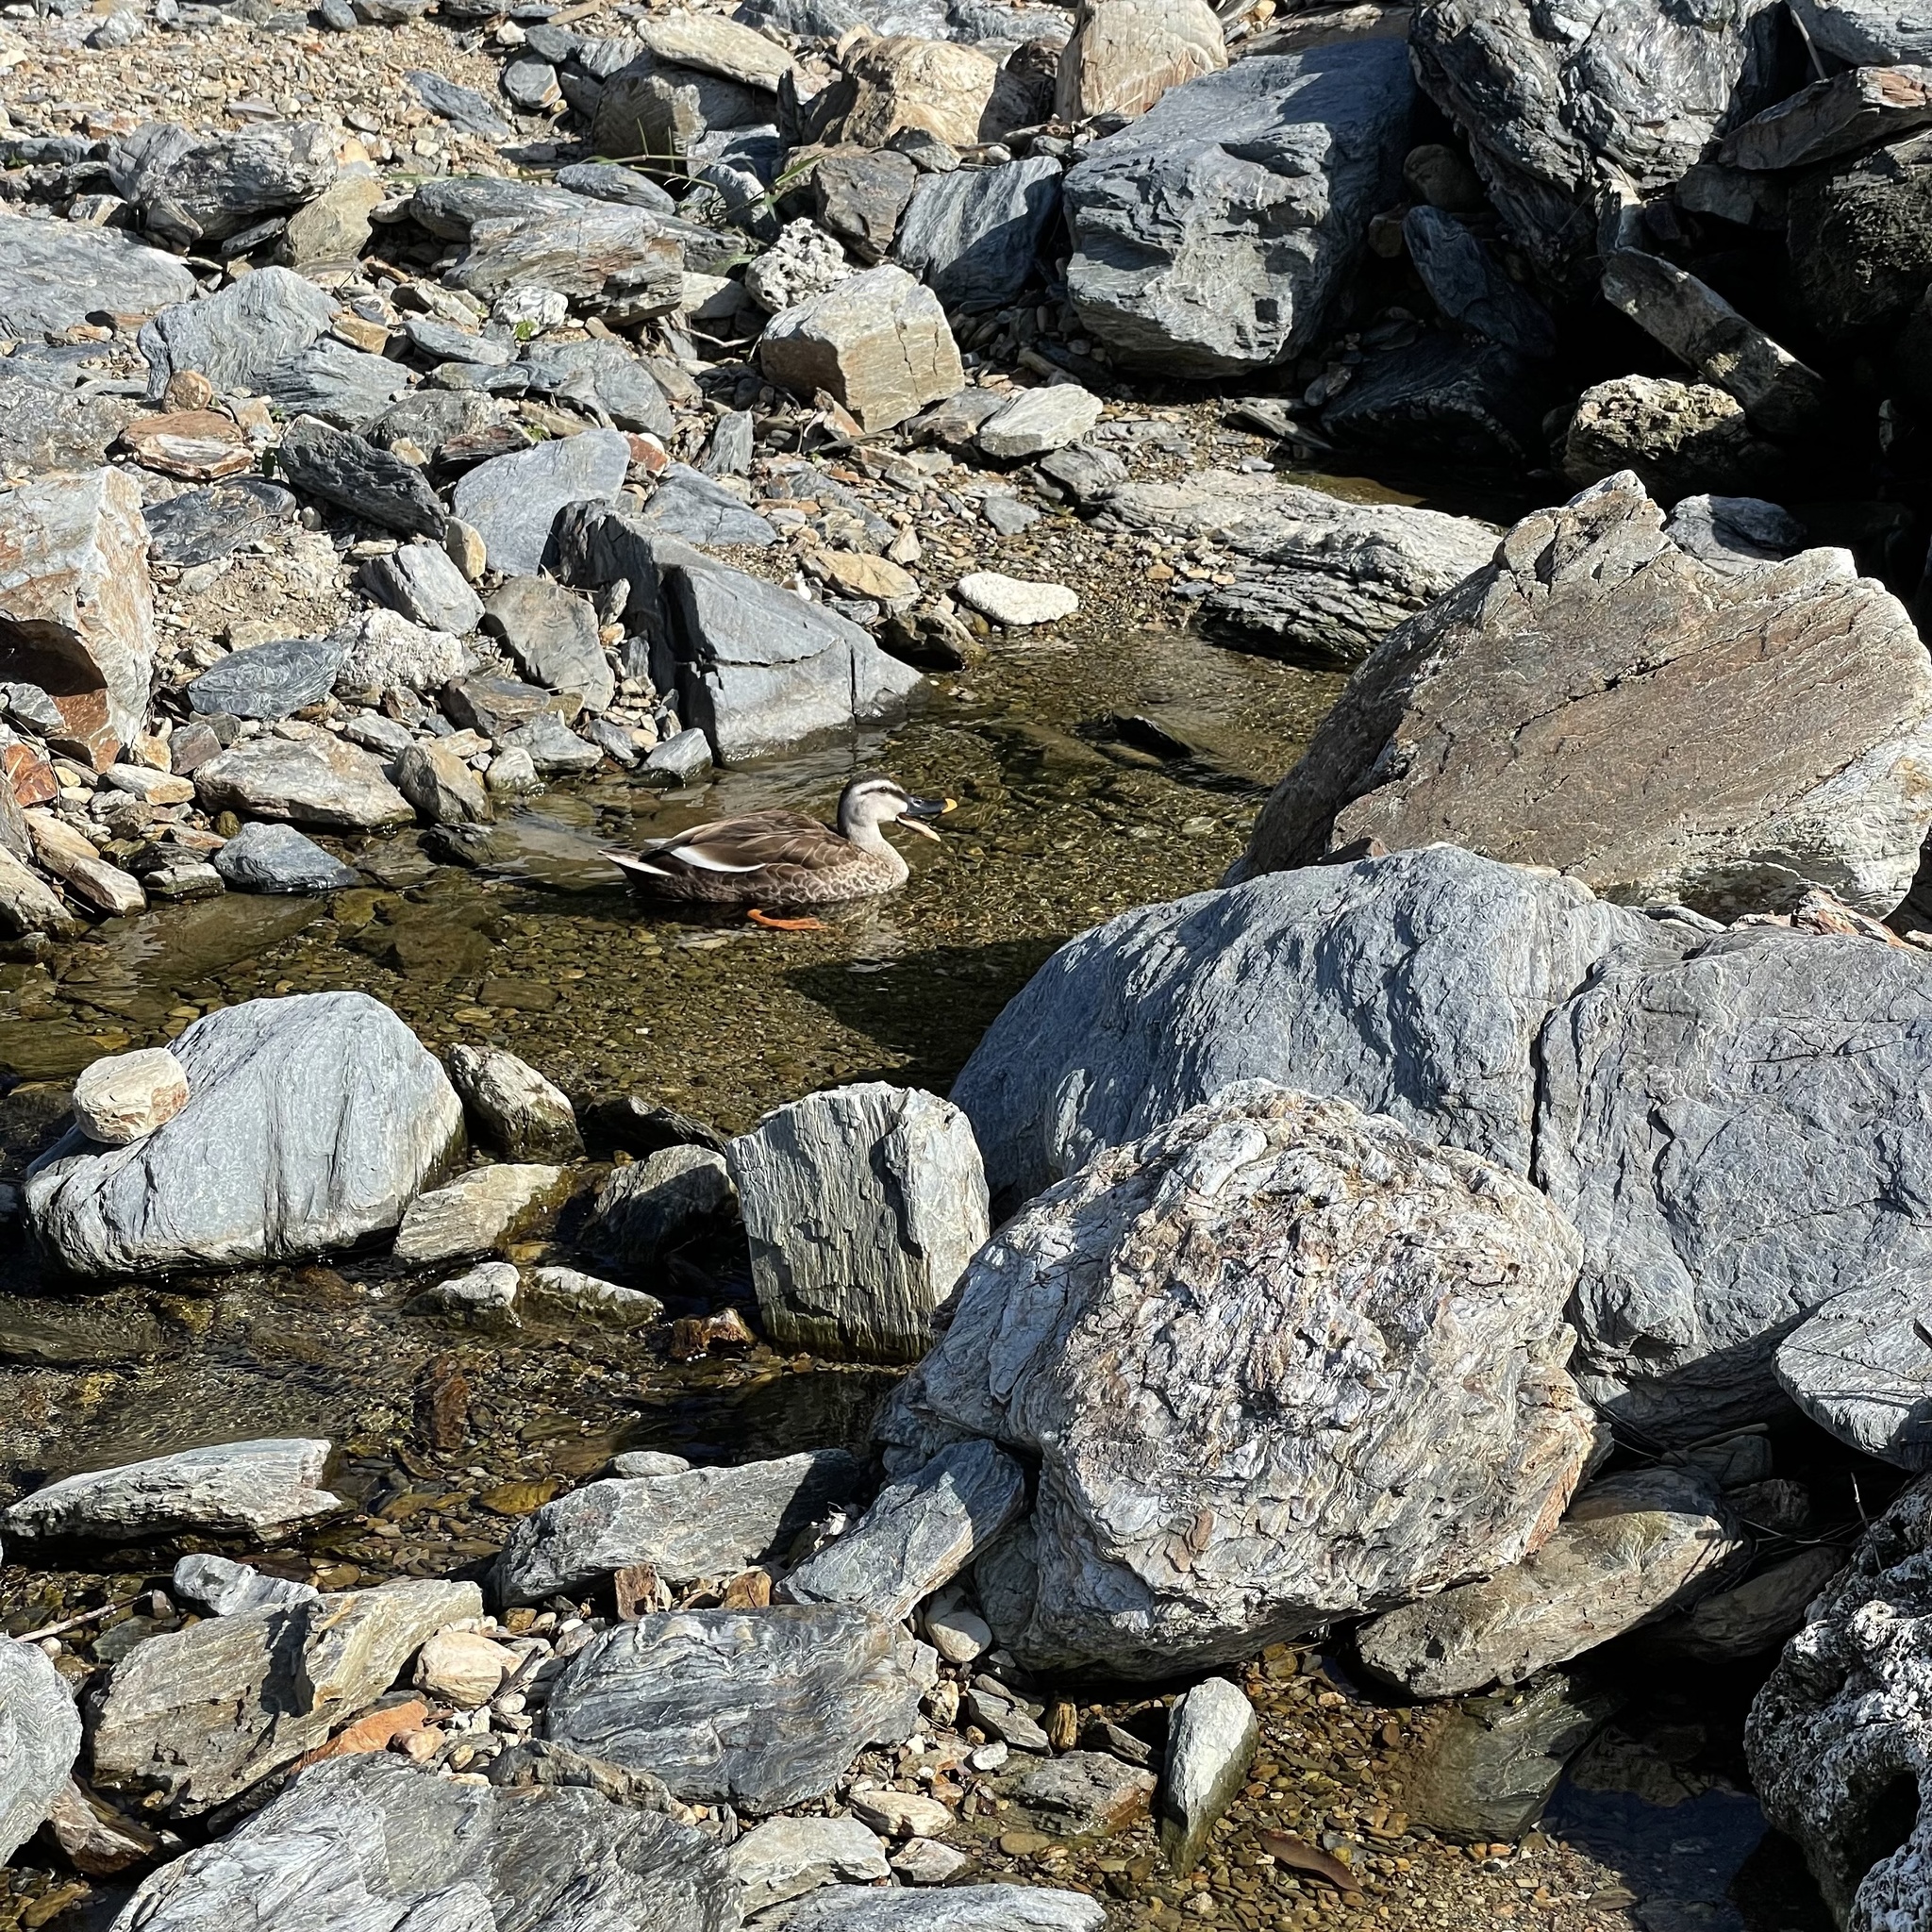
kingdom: Animalia
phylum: Chordata
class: Aves
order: Anseriformes
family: Anatidae
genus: Anas
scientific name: Anas zonorhyncha
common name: Eastern spot-billed duck
